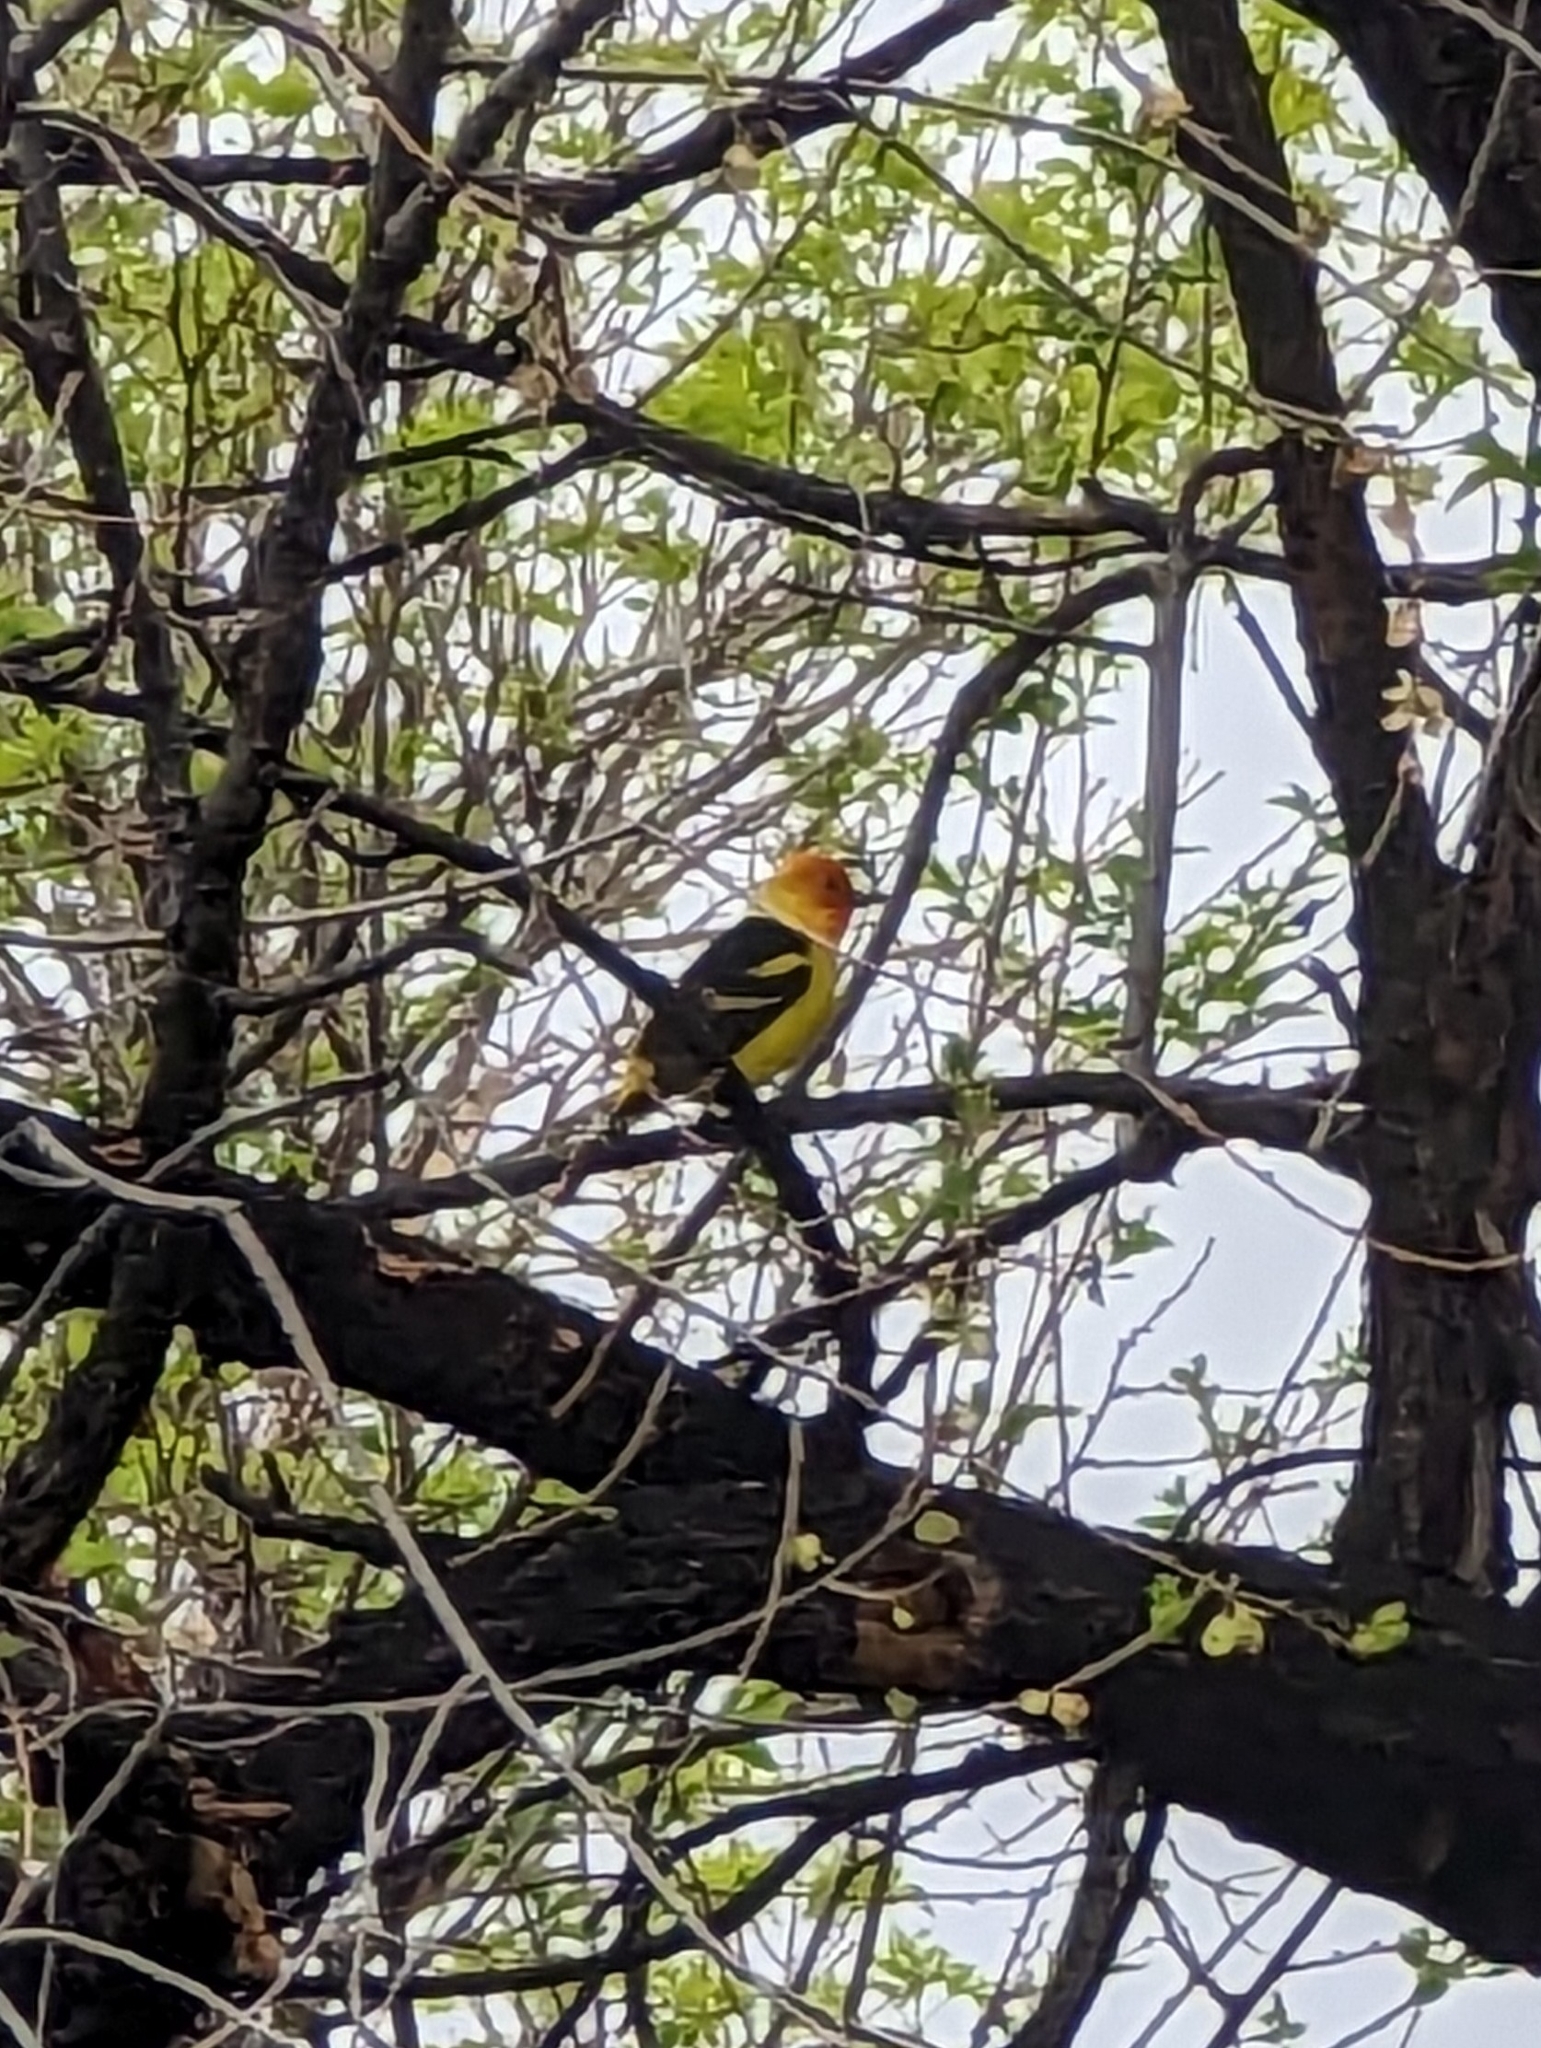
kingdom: Animalia
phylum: Chordata
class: Aves
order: Passeriformes
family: Cardinalidae
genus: Piranga
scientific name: Piranga ludoviciana
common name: Western tanager
